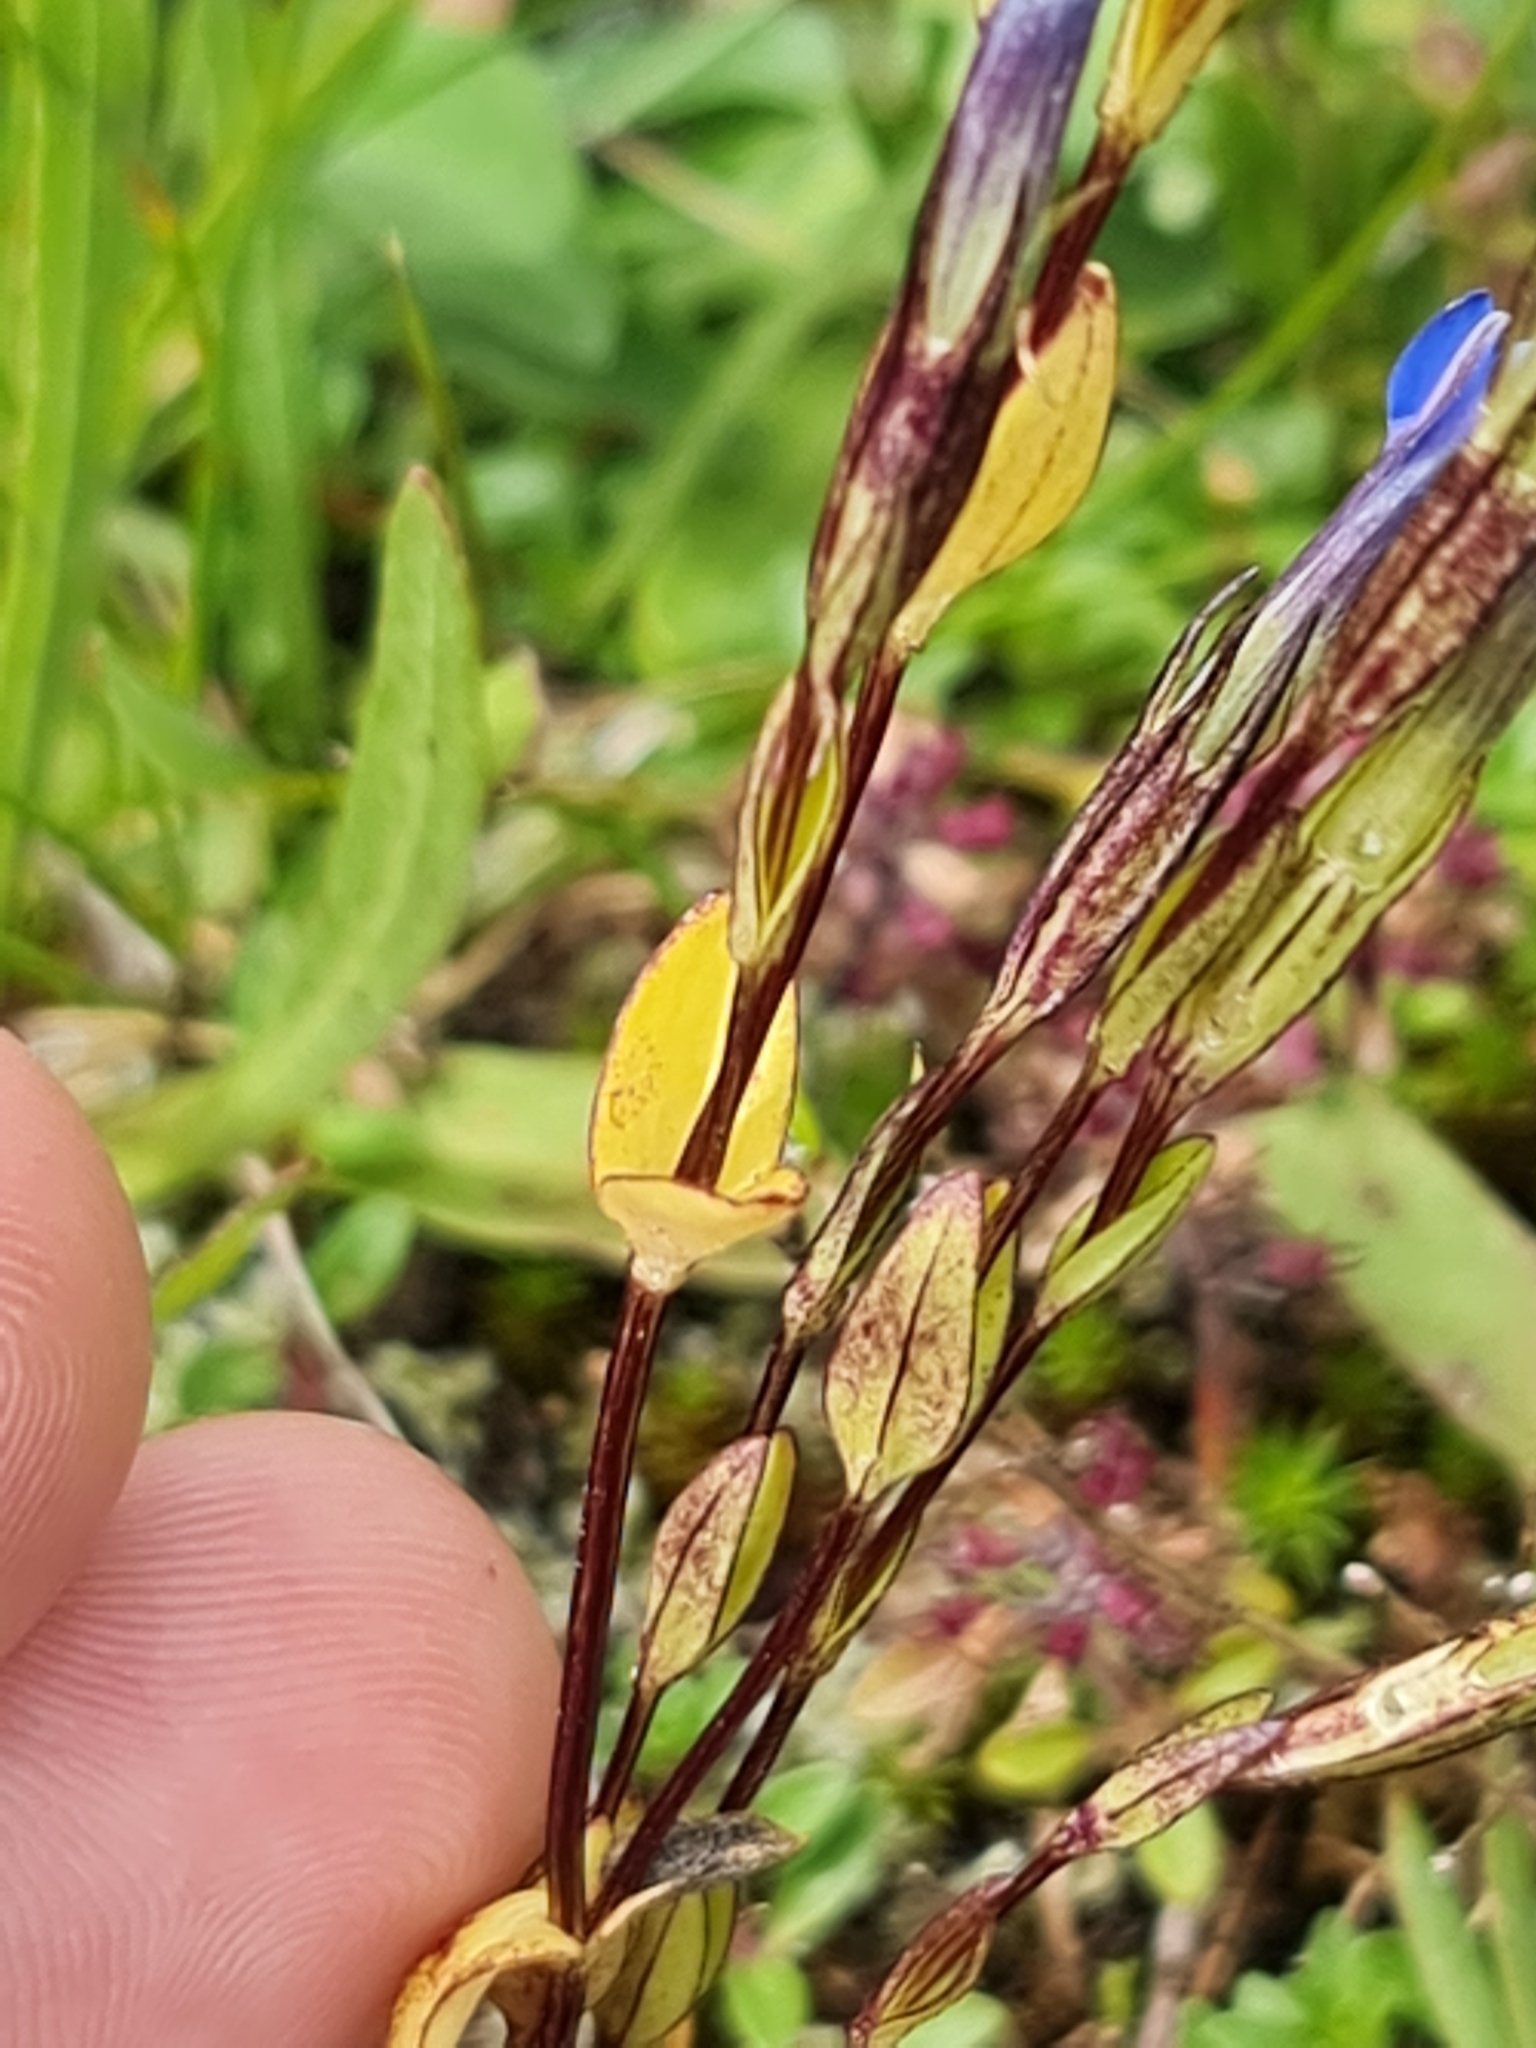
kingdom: Plantae
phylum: Tracheophyta
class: Magnoliopsida
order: Gentianales
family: Gentianaceae
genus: Gentiana
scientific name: Gentiana nivalis
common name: Alpine gentian
